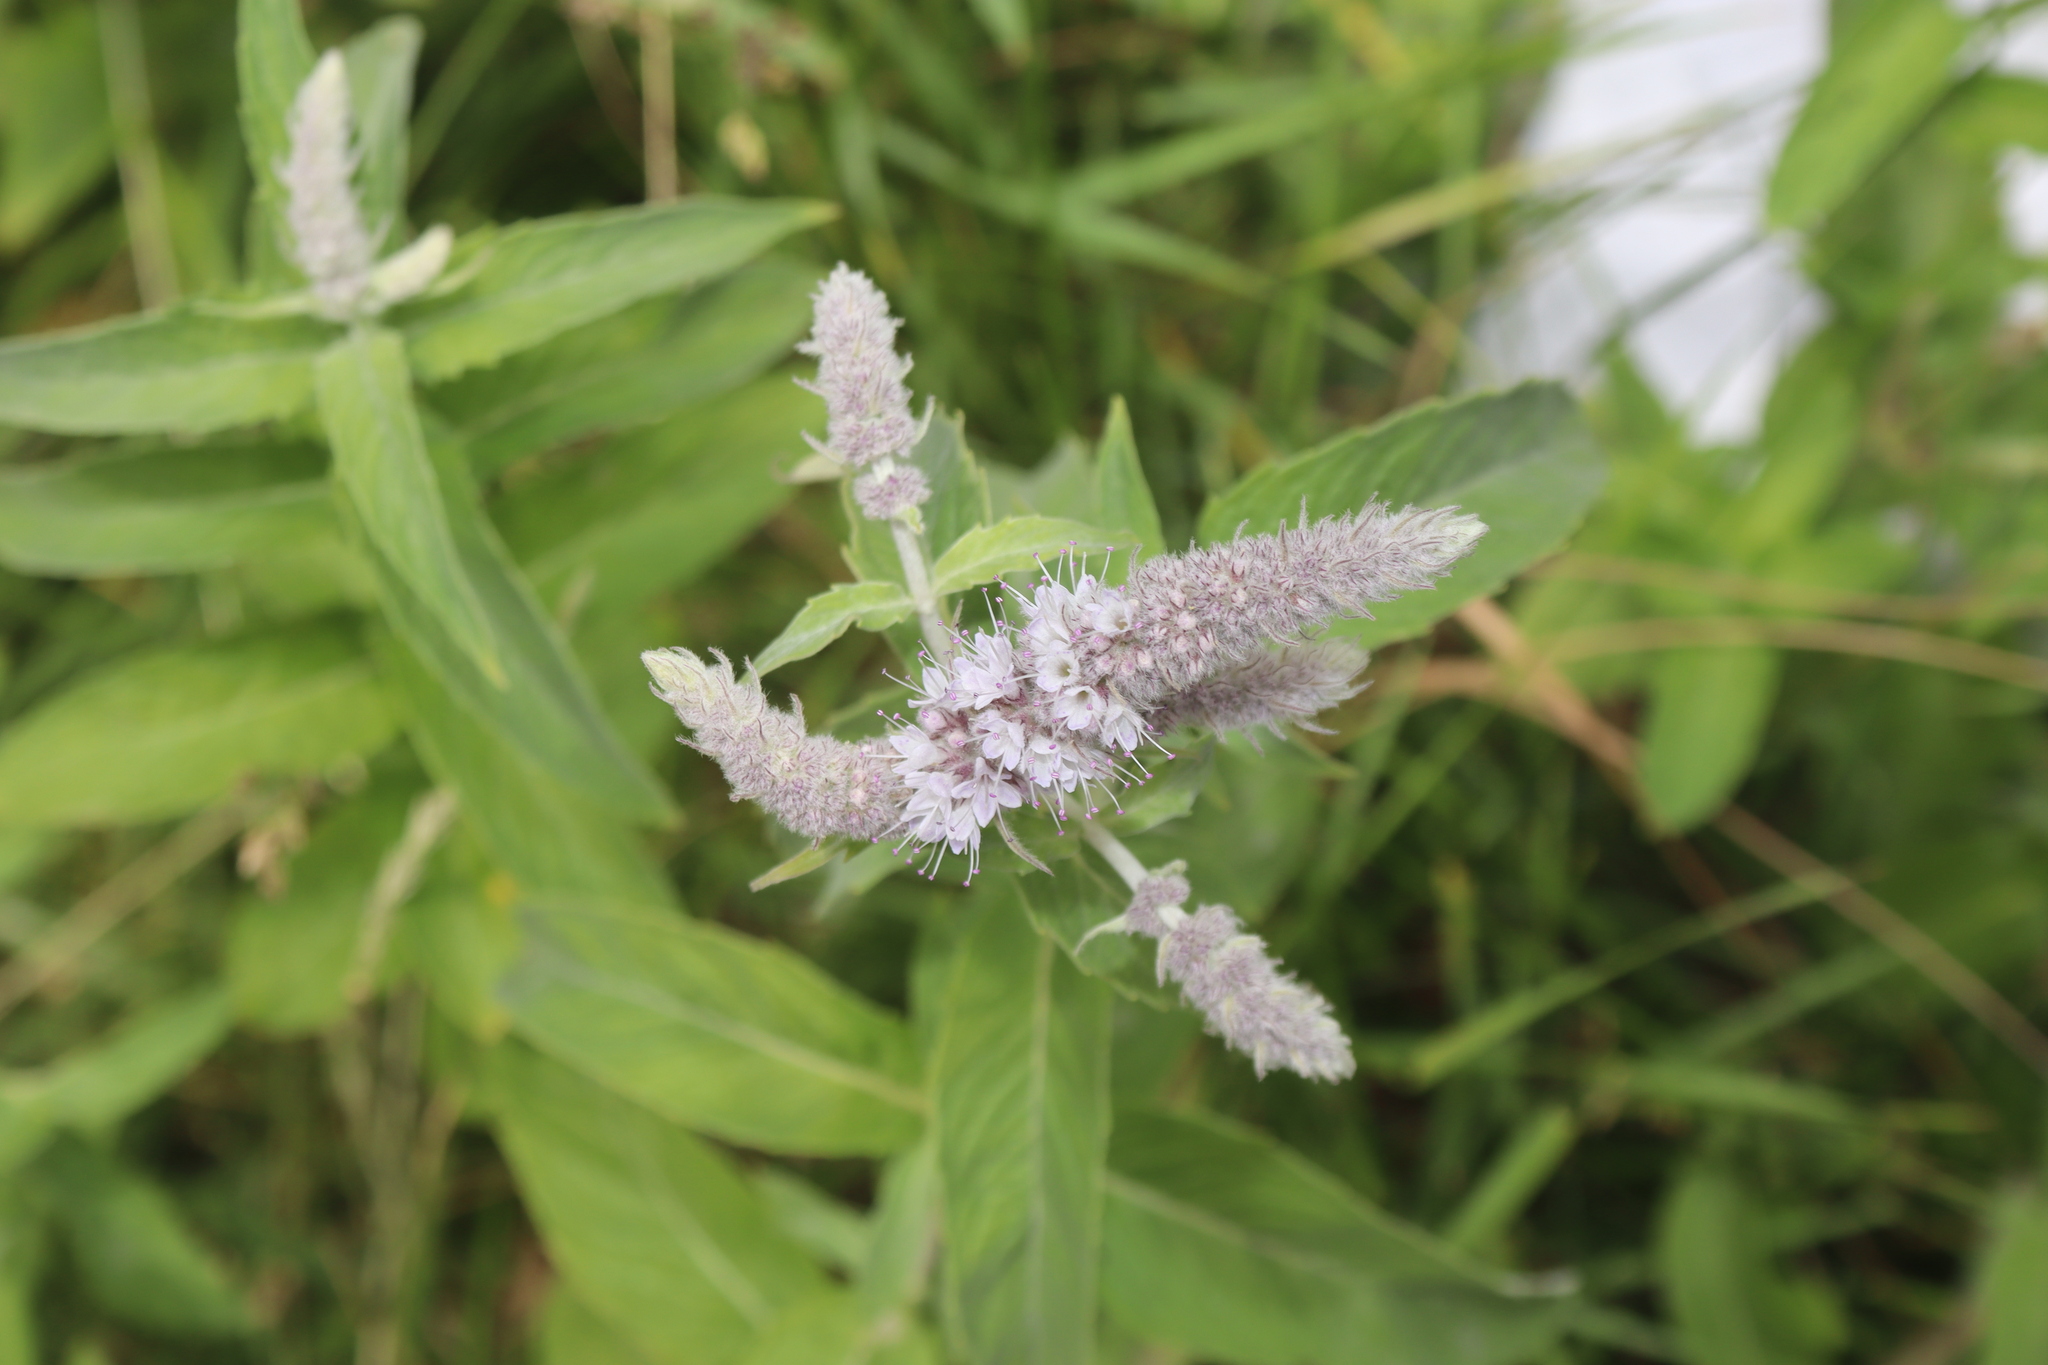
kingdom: Plantae
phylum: Tracheophyta
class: Magnoliopsida
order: Lamiales
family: Lamiaceae
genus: Mentha
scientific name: Mentha longifolia
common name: Horse mint
